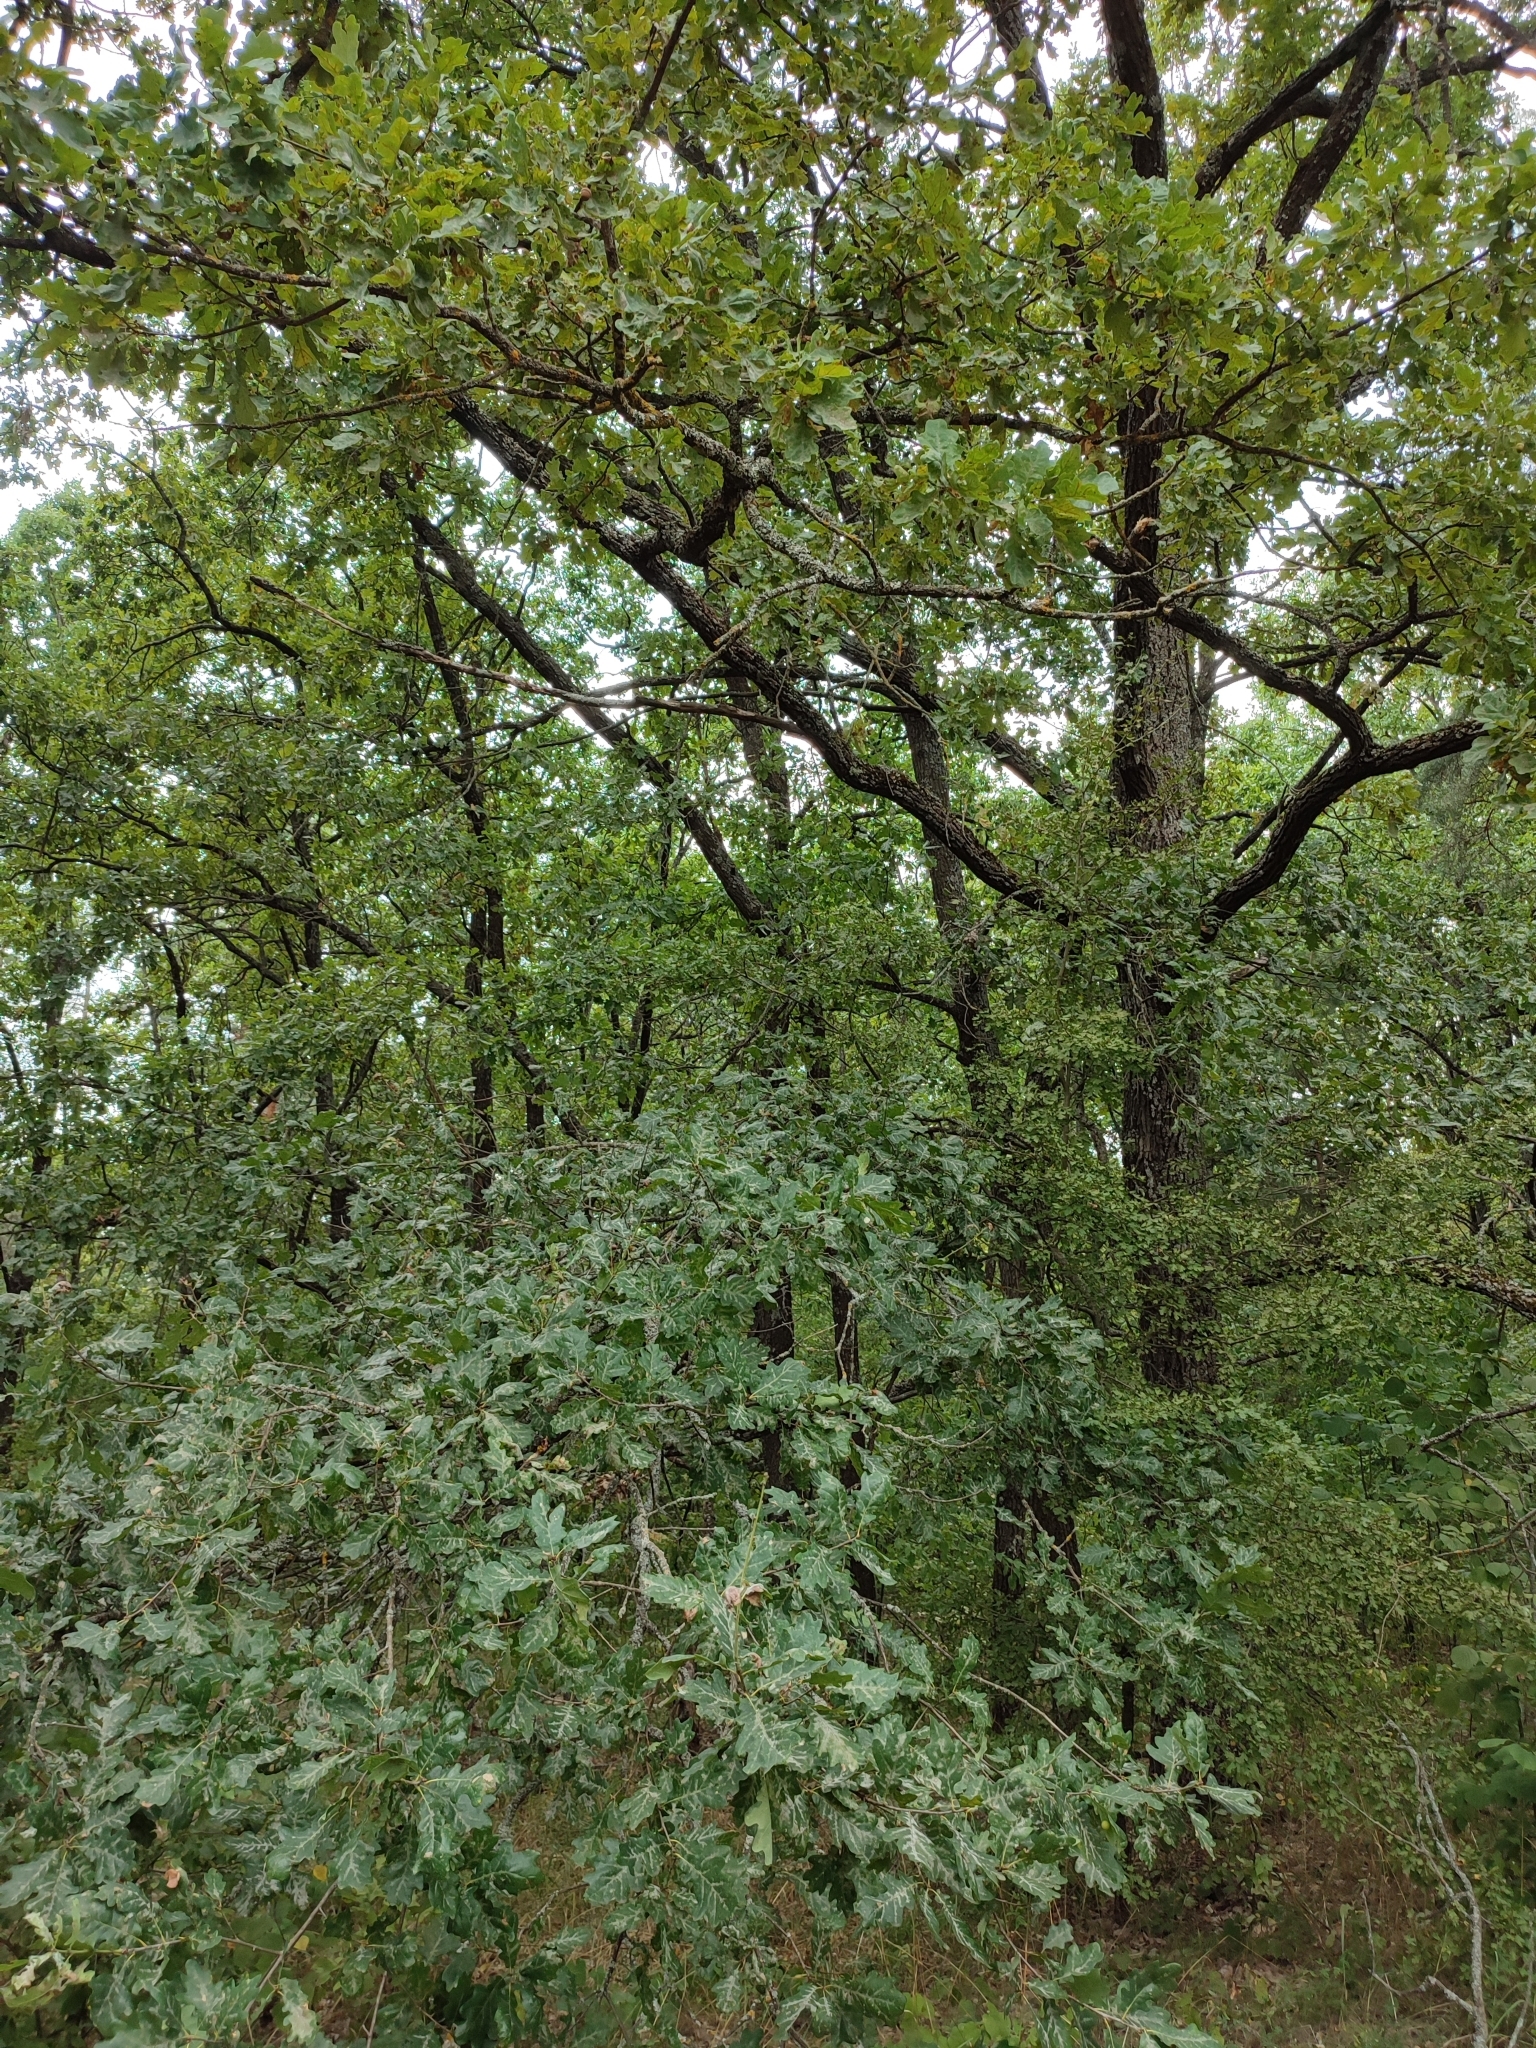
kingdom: Plantae
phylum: Tracheophyta
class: Magnoliopsida
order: Fagales
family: Fagaceae
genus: Quercus
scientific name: Quercus robur
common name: Pedunculate oak
